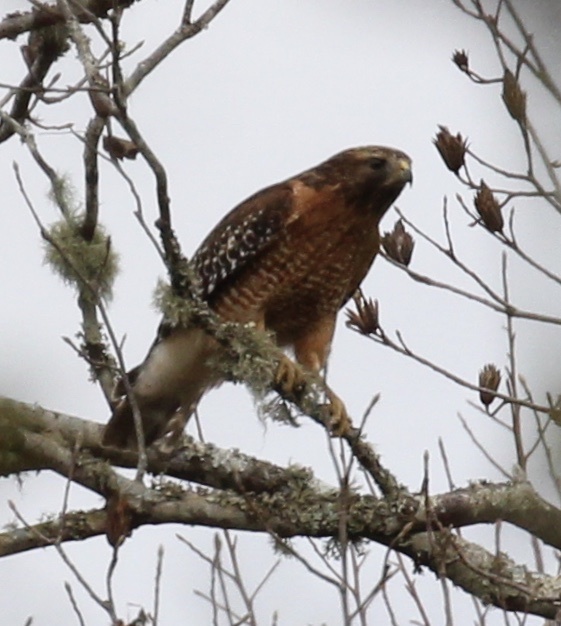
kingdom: Animalia
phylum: Chordata
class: Aves
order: Accipitriformes
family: Accipitridae
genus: Buteo
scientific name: Buteo lineatus
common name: Red-shouldered hawk
